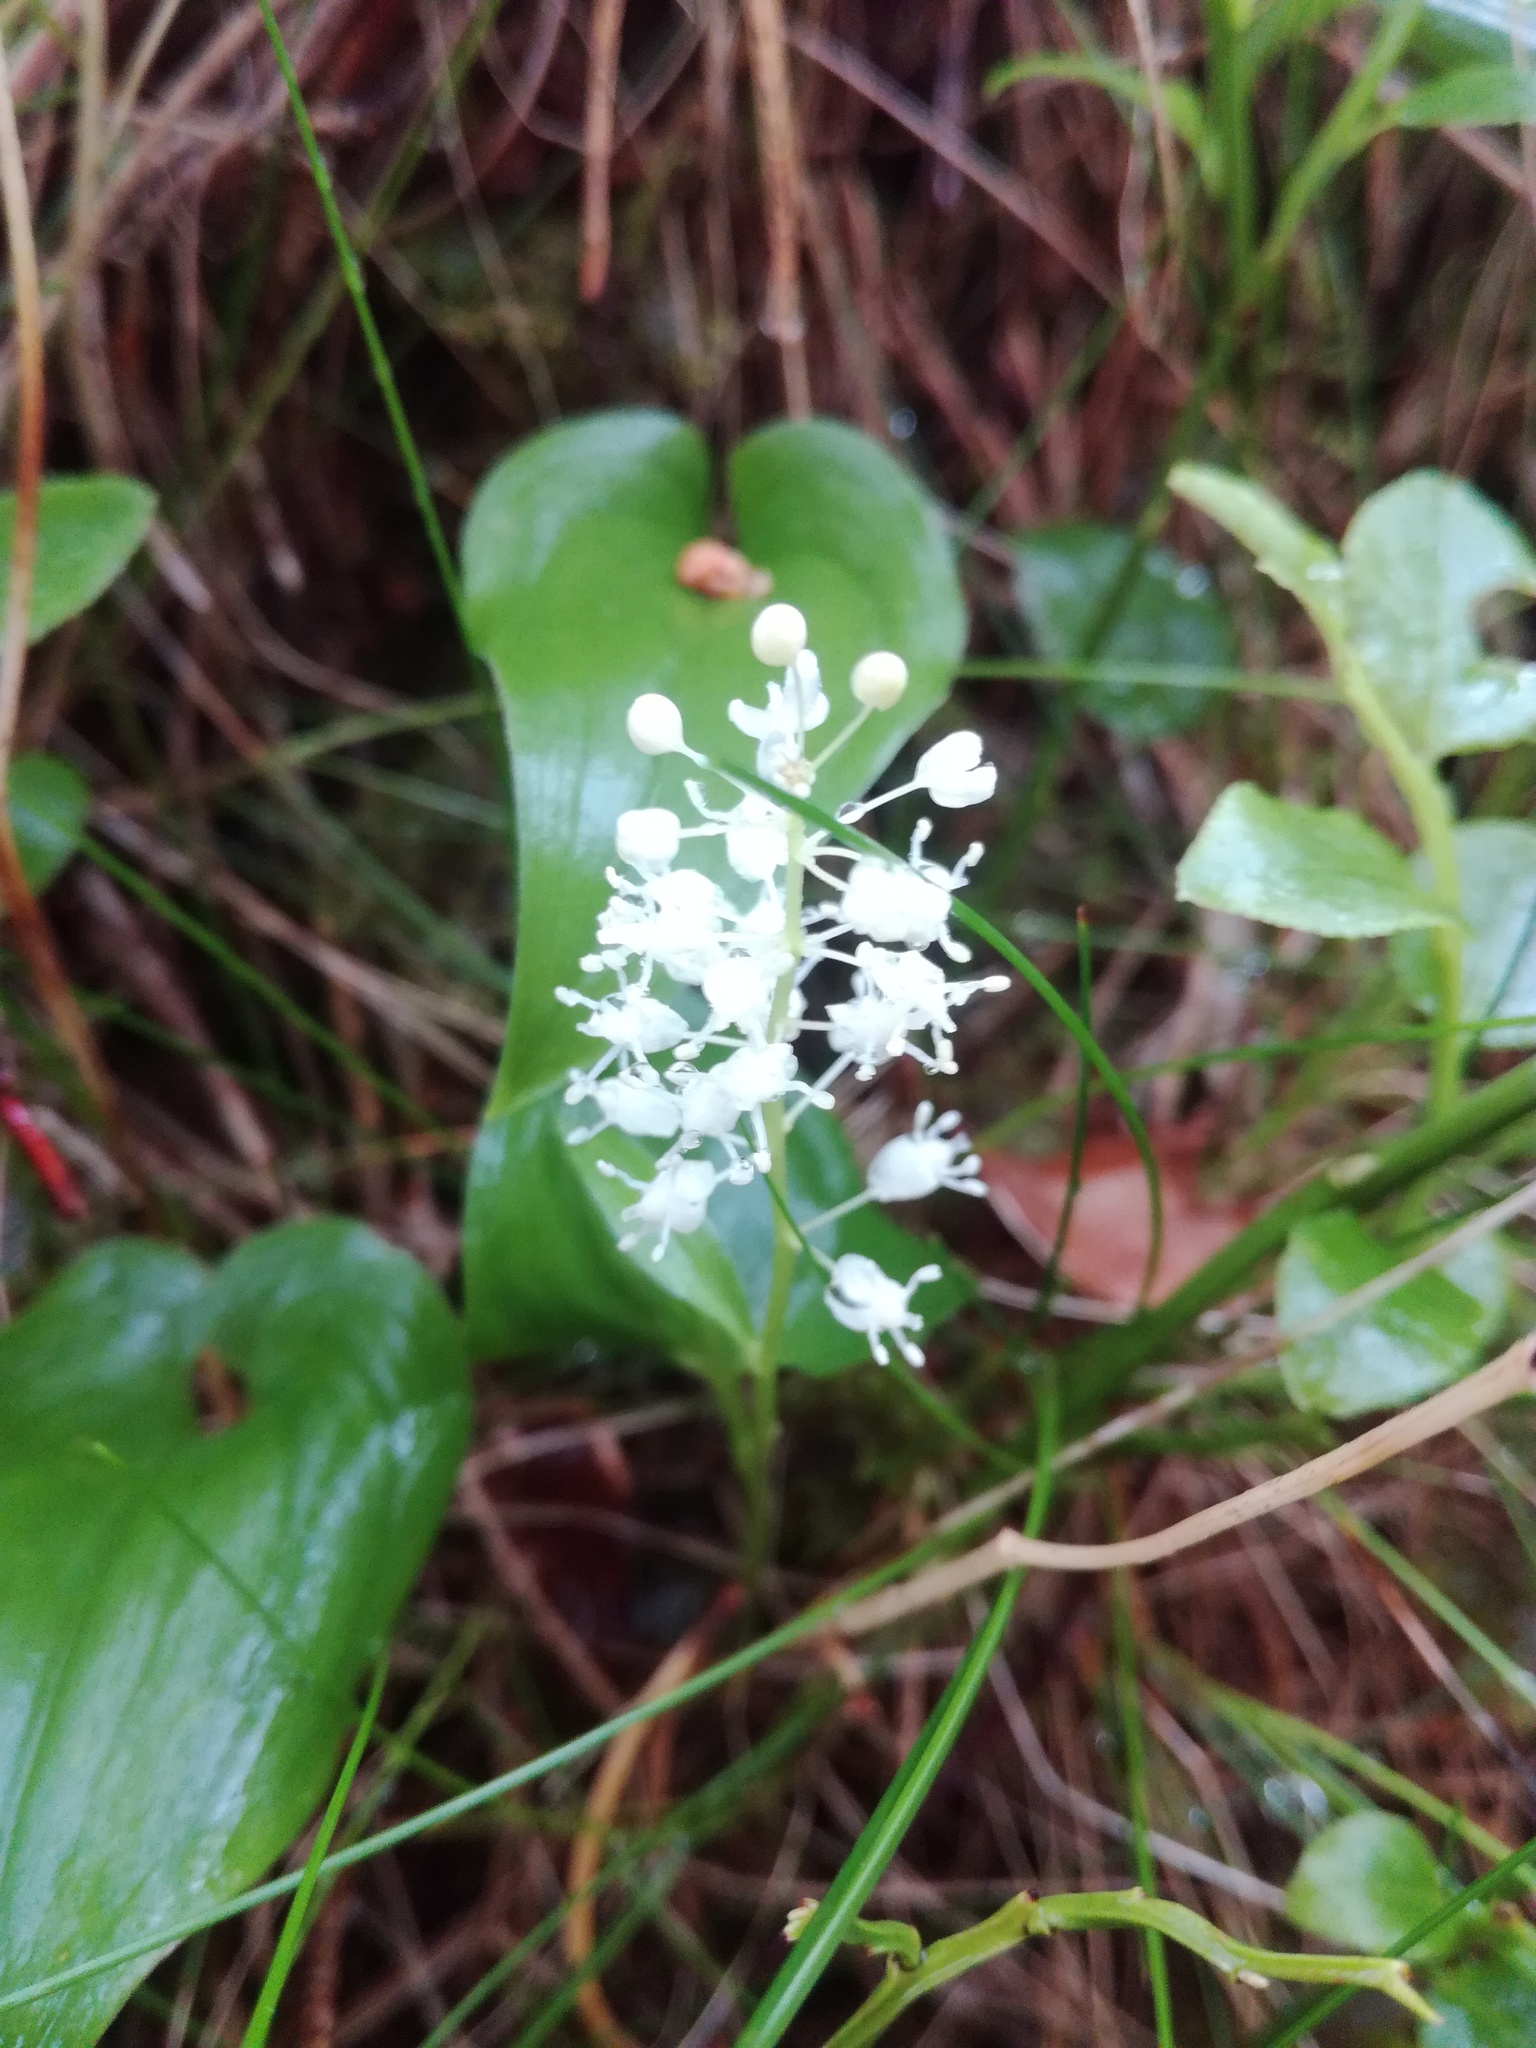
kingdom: Plantae
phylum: Tracheophyta
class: Liliopsida
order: Asparagales
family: Asparagaceae
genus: Maianthemum
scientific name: Maianthemum bifolium
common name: May lily
